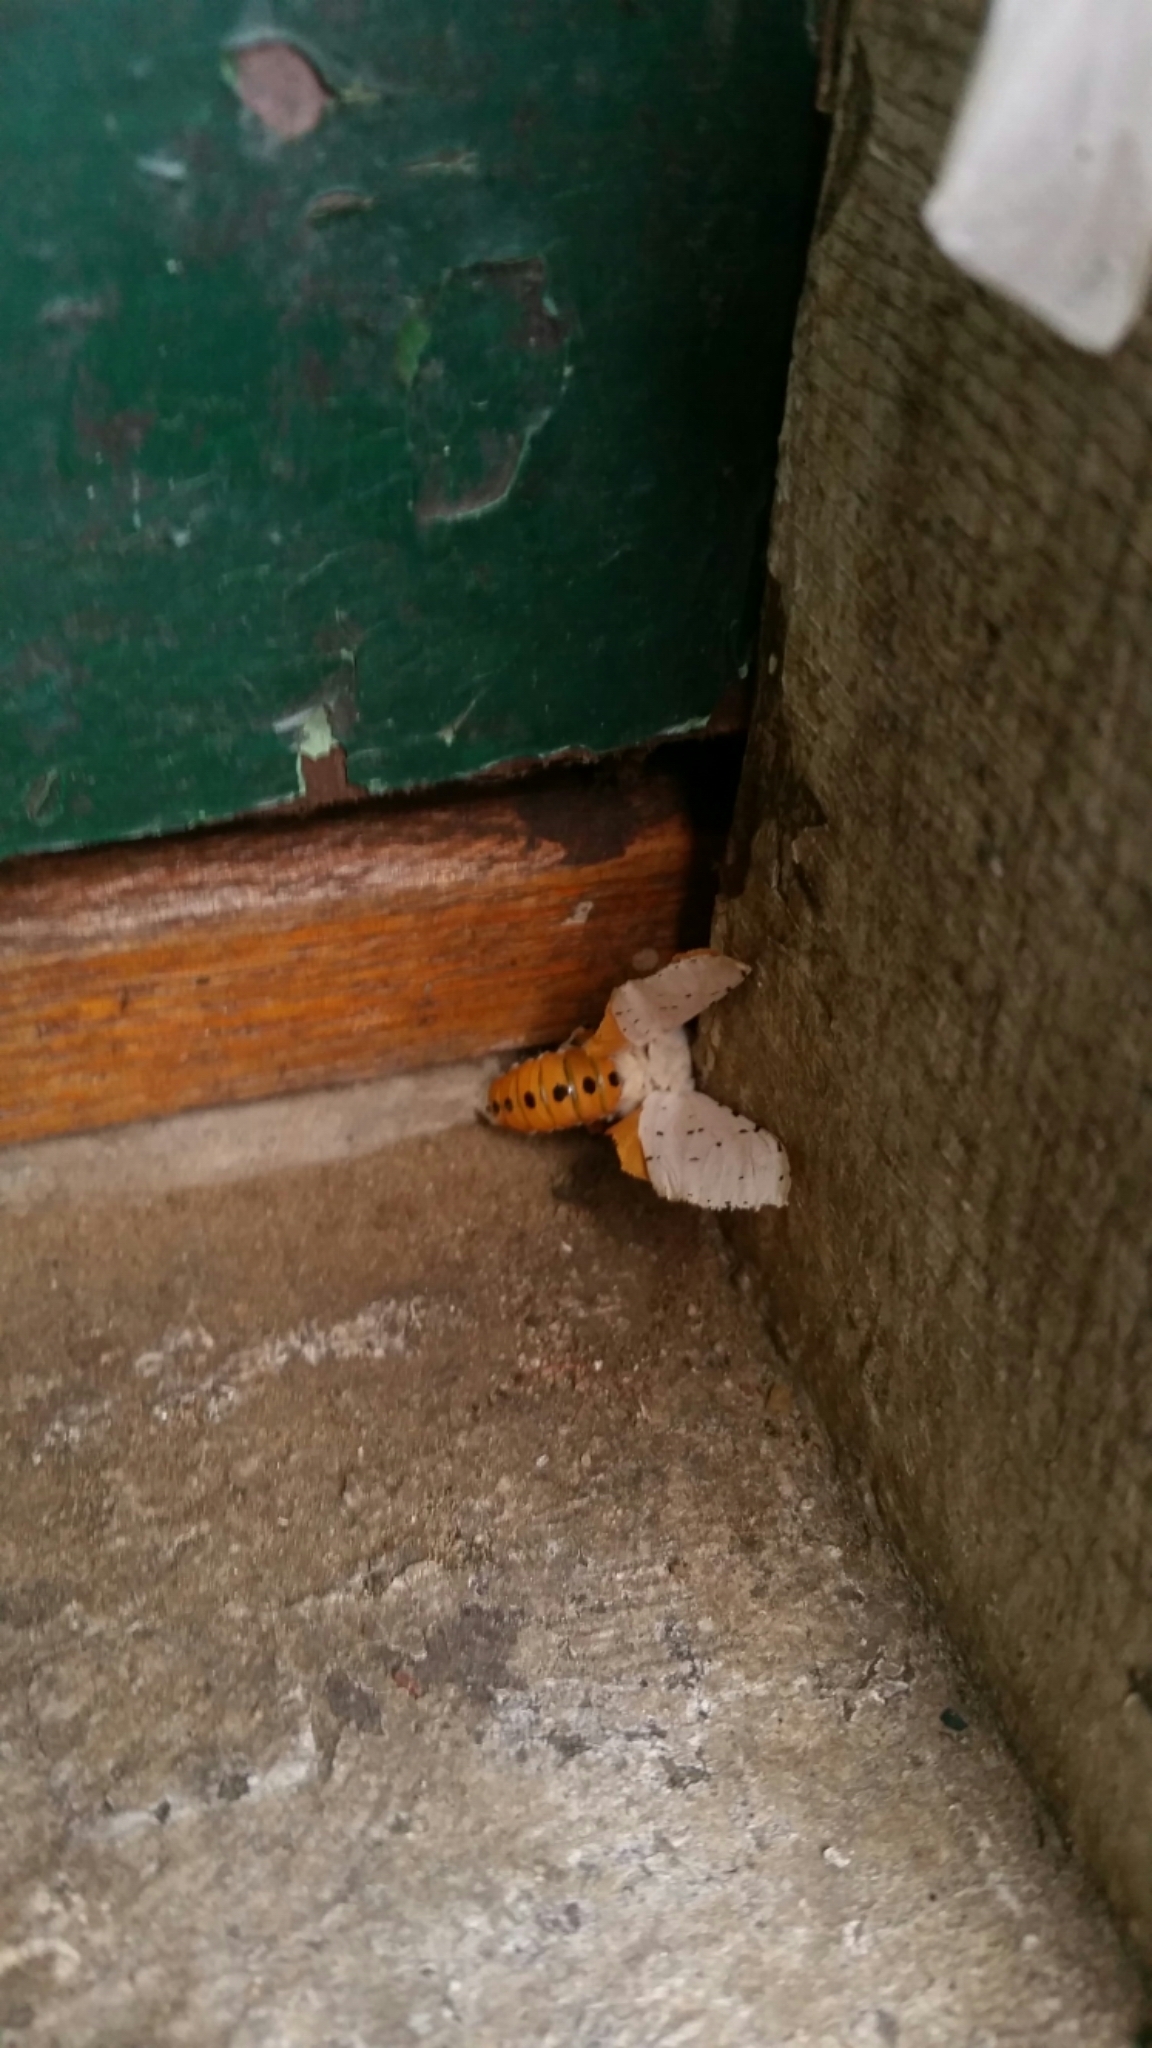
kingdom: Animalia
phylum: Arthropoda
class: Insecta
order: Lepidoptera
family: Erebidae
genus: Estigmene
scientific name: Estigmene acrea
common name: Salt marsh moth
